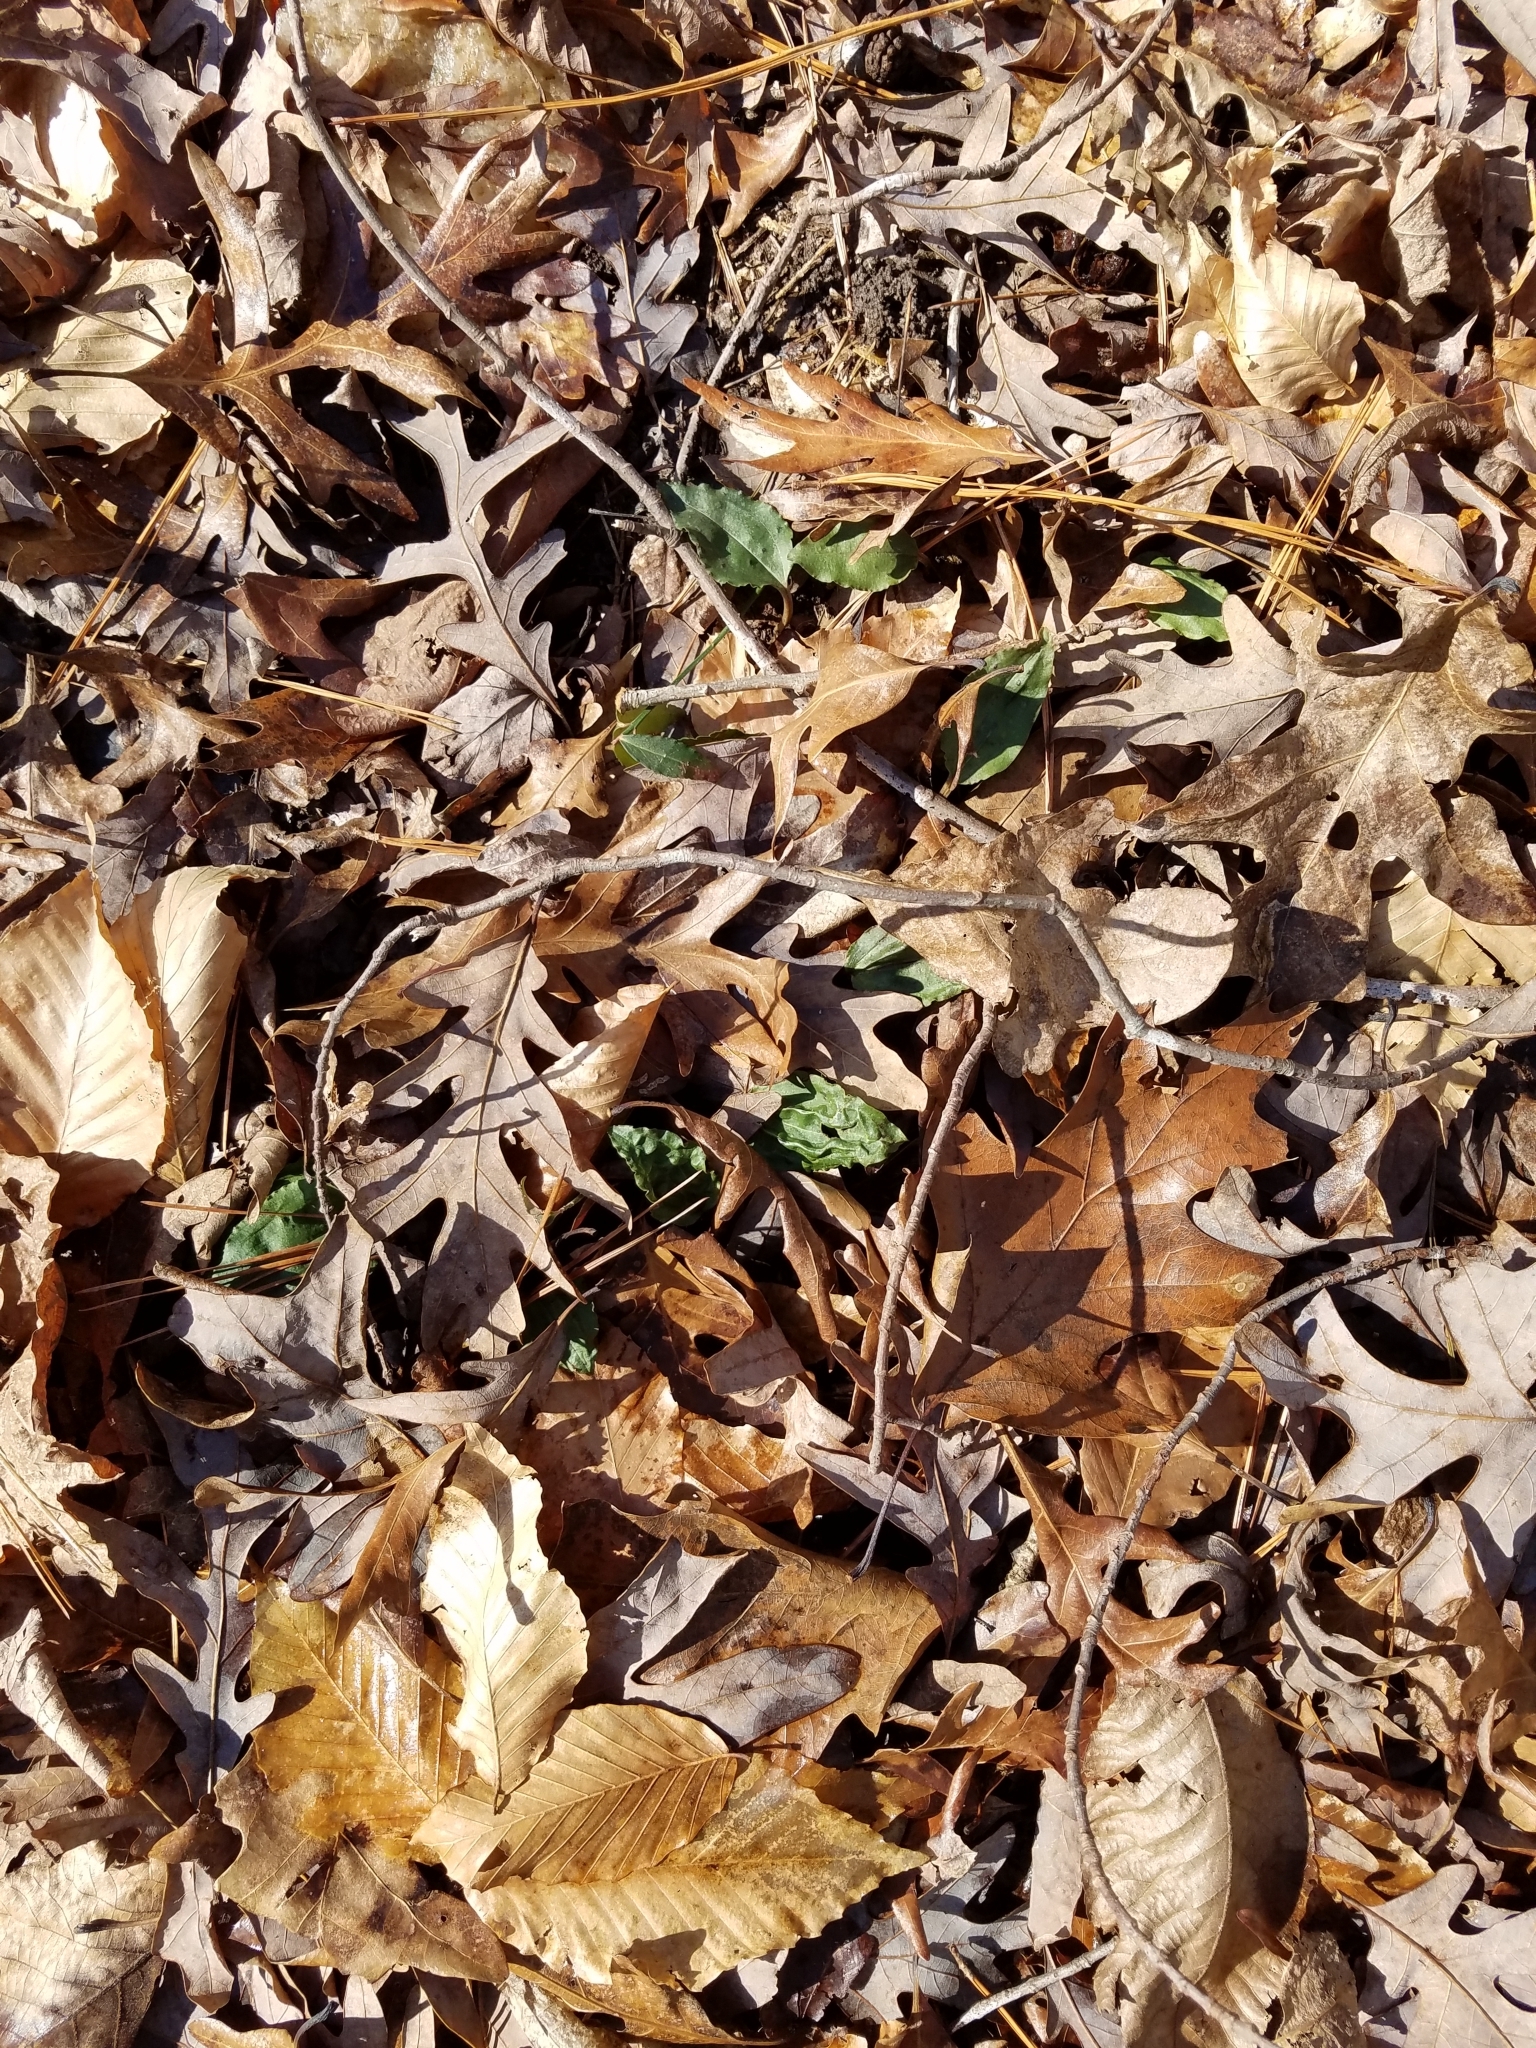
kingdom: Plantae
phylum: Tracheophyta
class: Liliopsida
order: Asparagales
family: Orchidaceae
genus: Tipularia
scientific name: Tipularia discolor
